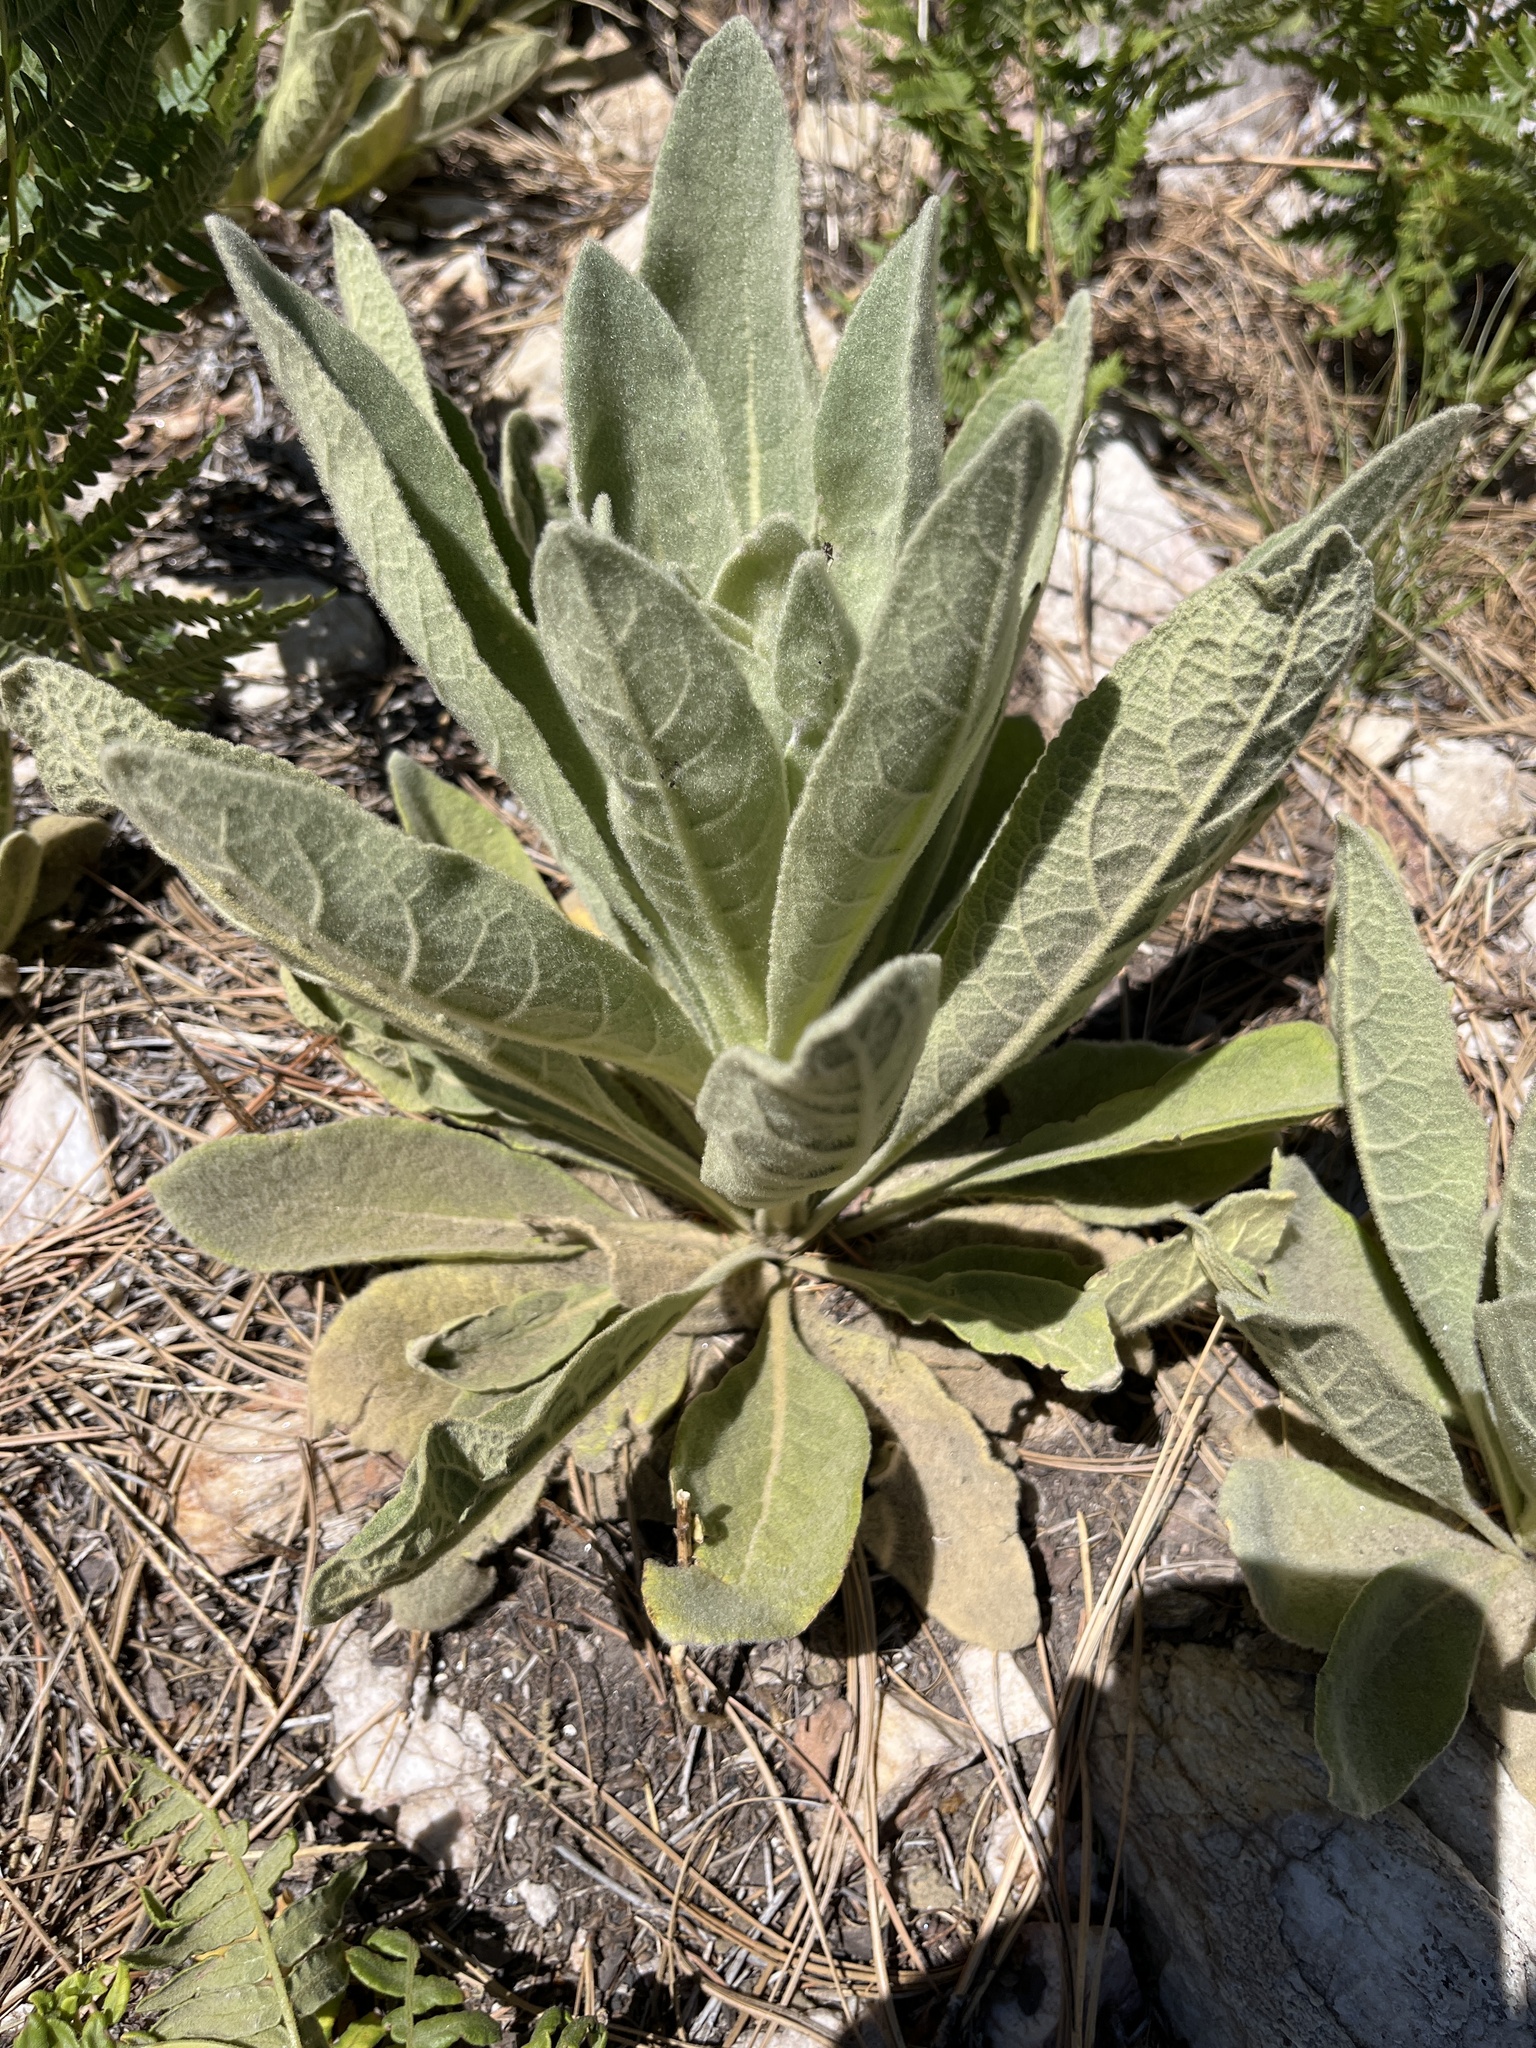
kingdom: Plantae
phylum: Tracheophyta
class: Magnoliopsida
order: Lamiales
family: Scrophulariaceae
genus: Verbascum
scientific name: Verbascum thapsus
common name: Common mullein
